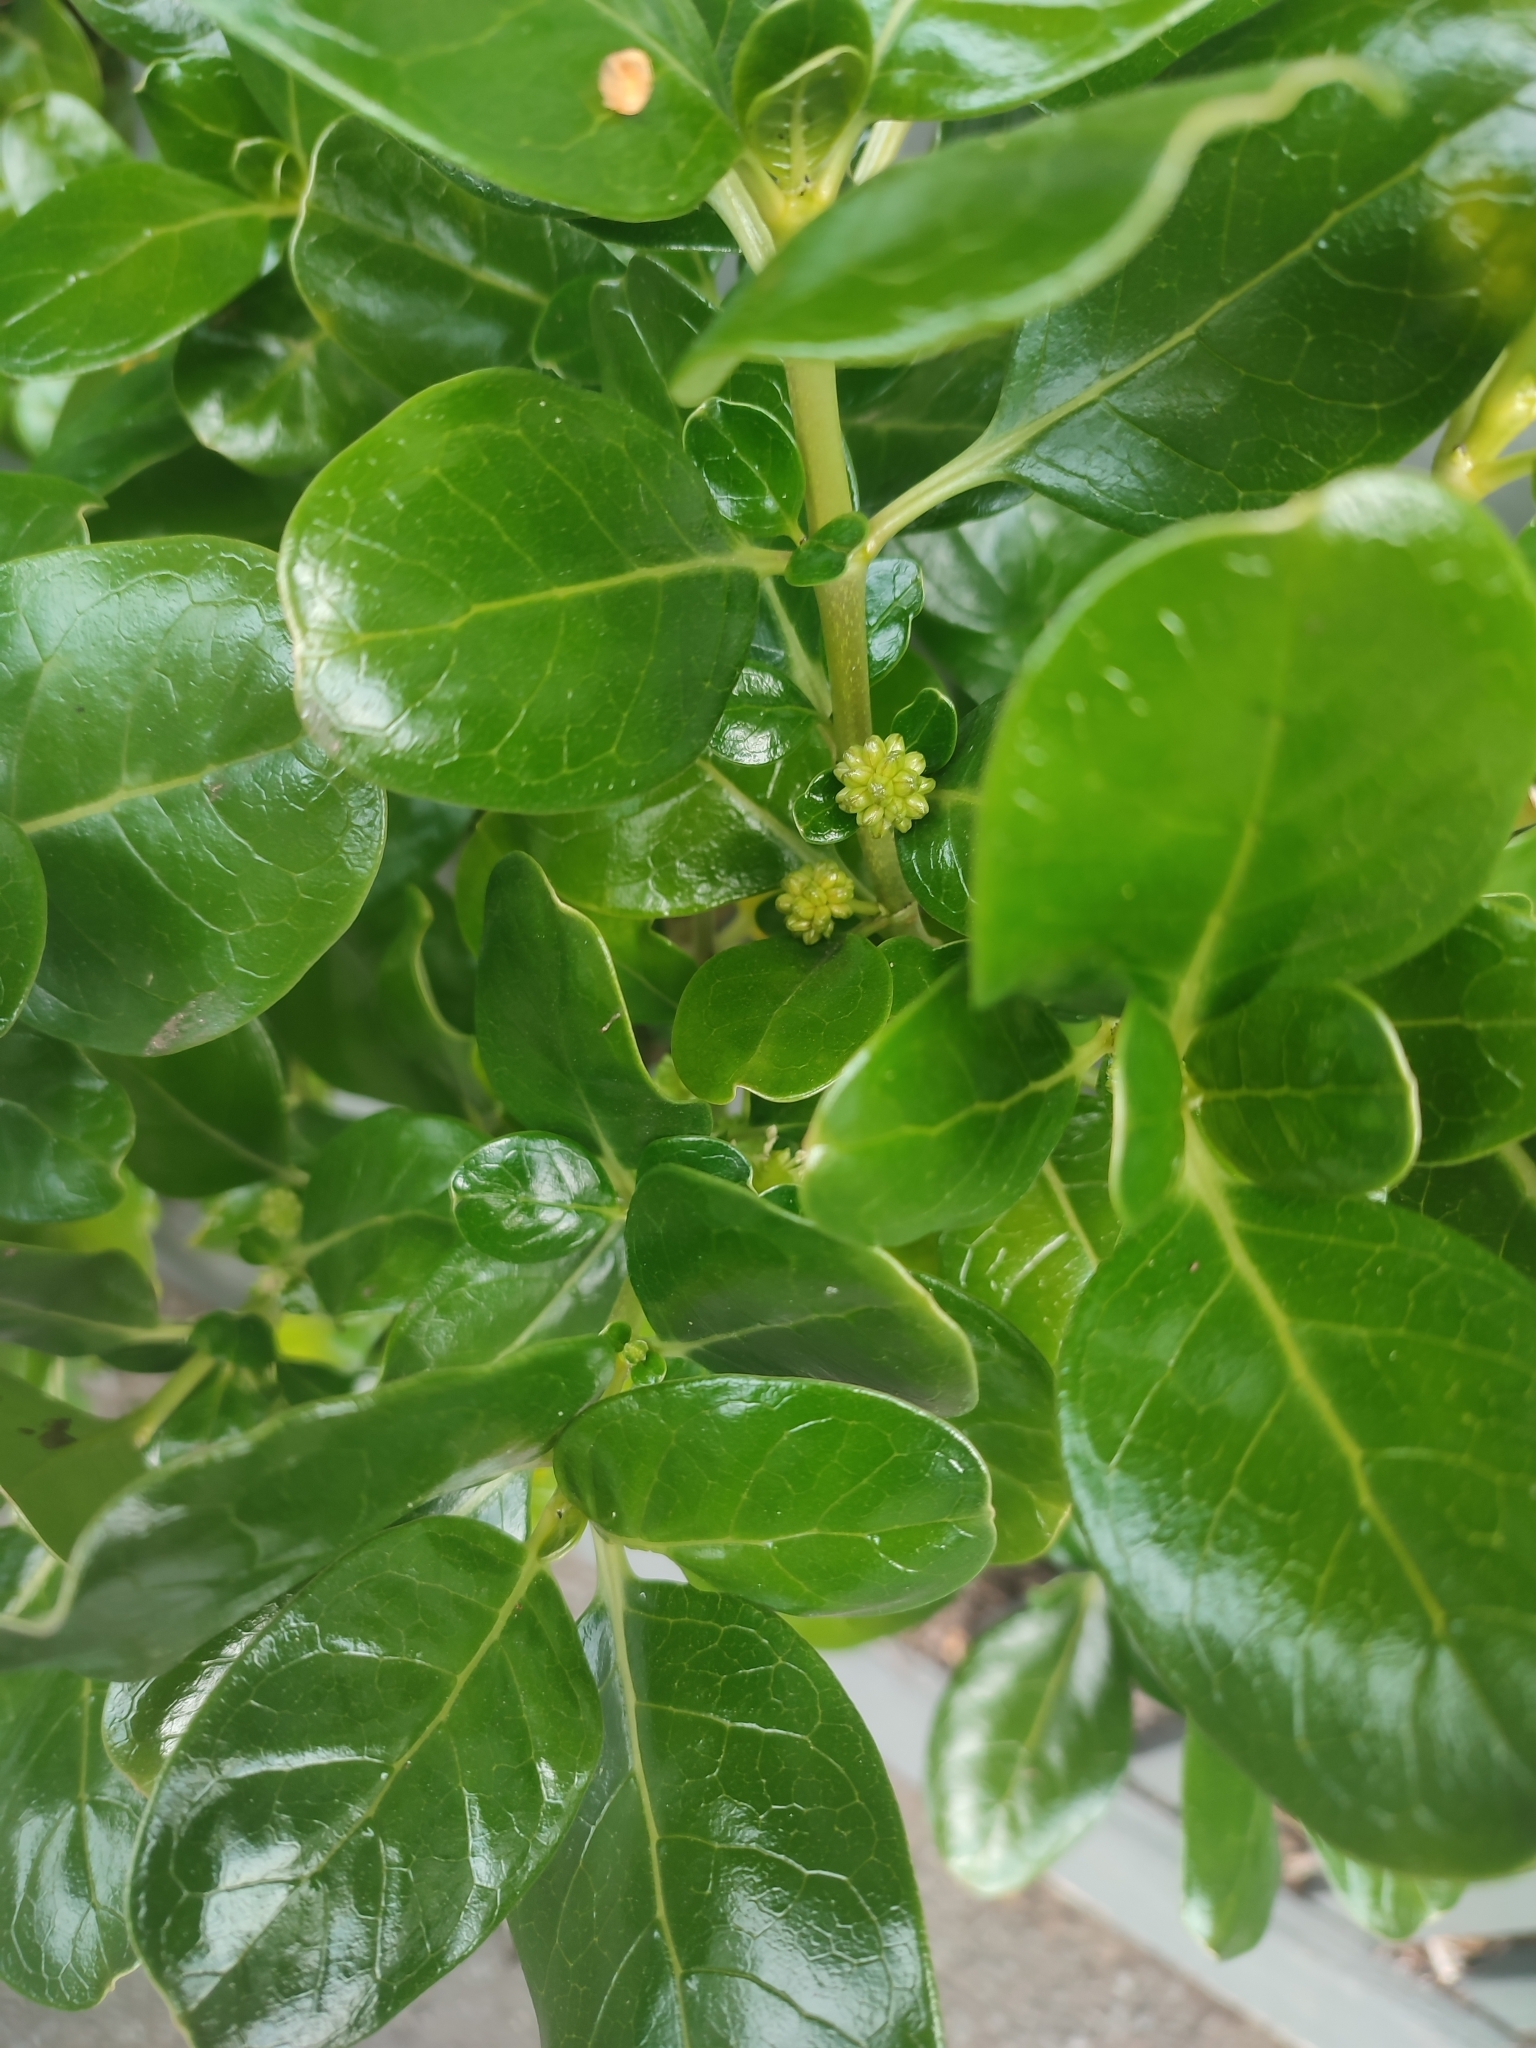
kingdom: Plantae
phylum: Tracheophyta
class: Magnoliopsida
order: Gentianales
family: Rubiaceae
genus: Coprosma
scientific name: Coprosma repens
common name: Tree bedstraw
